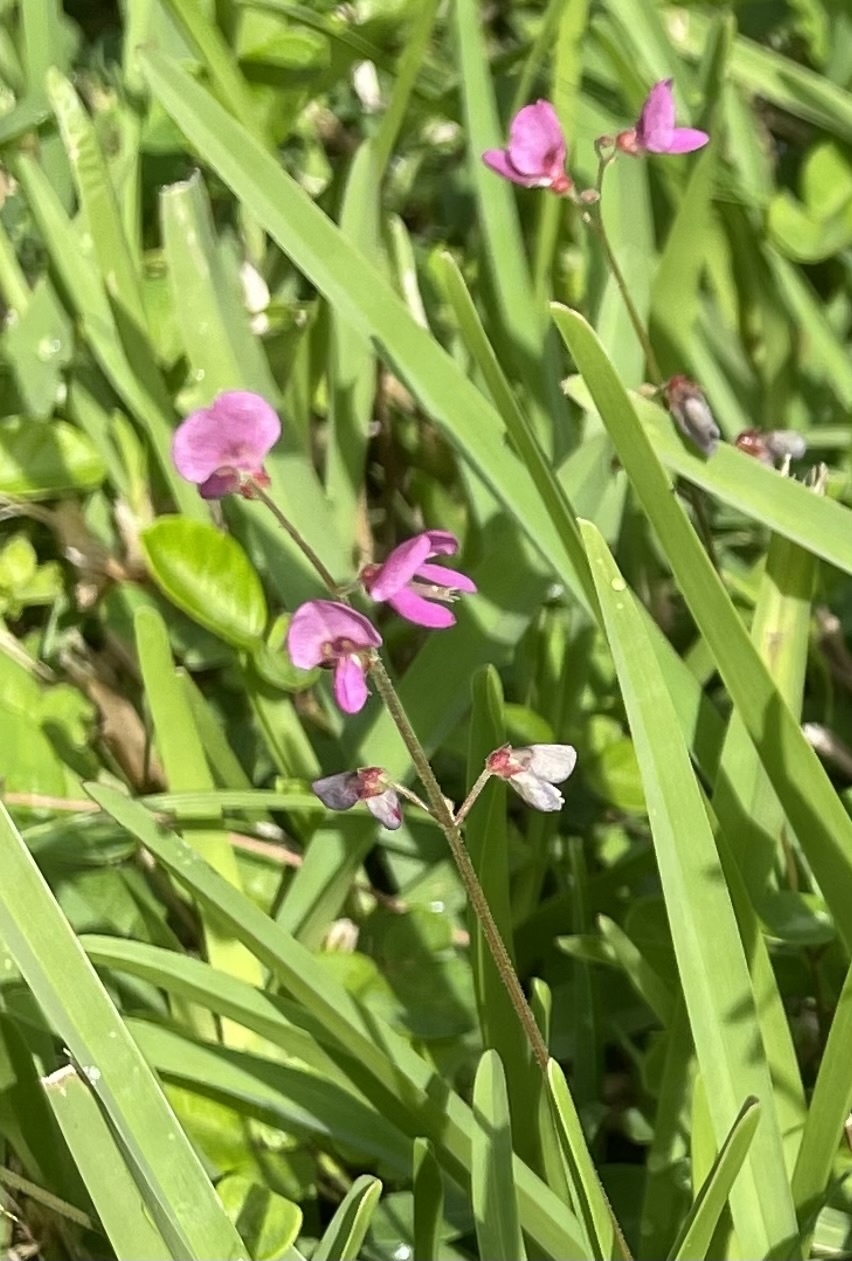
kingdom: Plantae
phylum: Tracheophyta
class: Magnoliopsida
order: Fabales
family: Fabaceae
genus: Desmodium
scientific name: Desmodium incanum
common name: Tickclover
